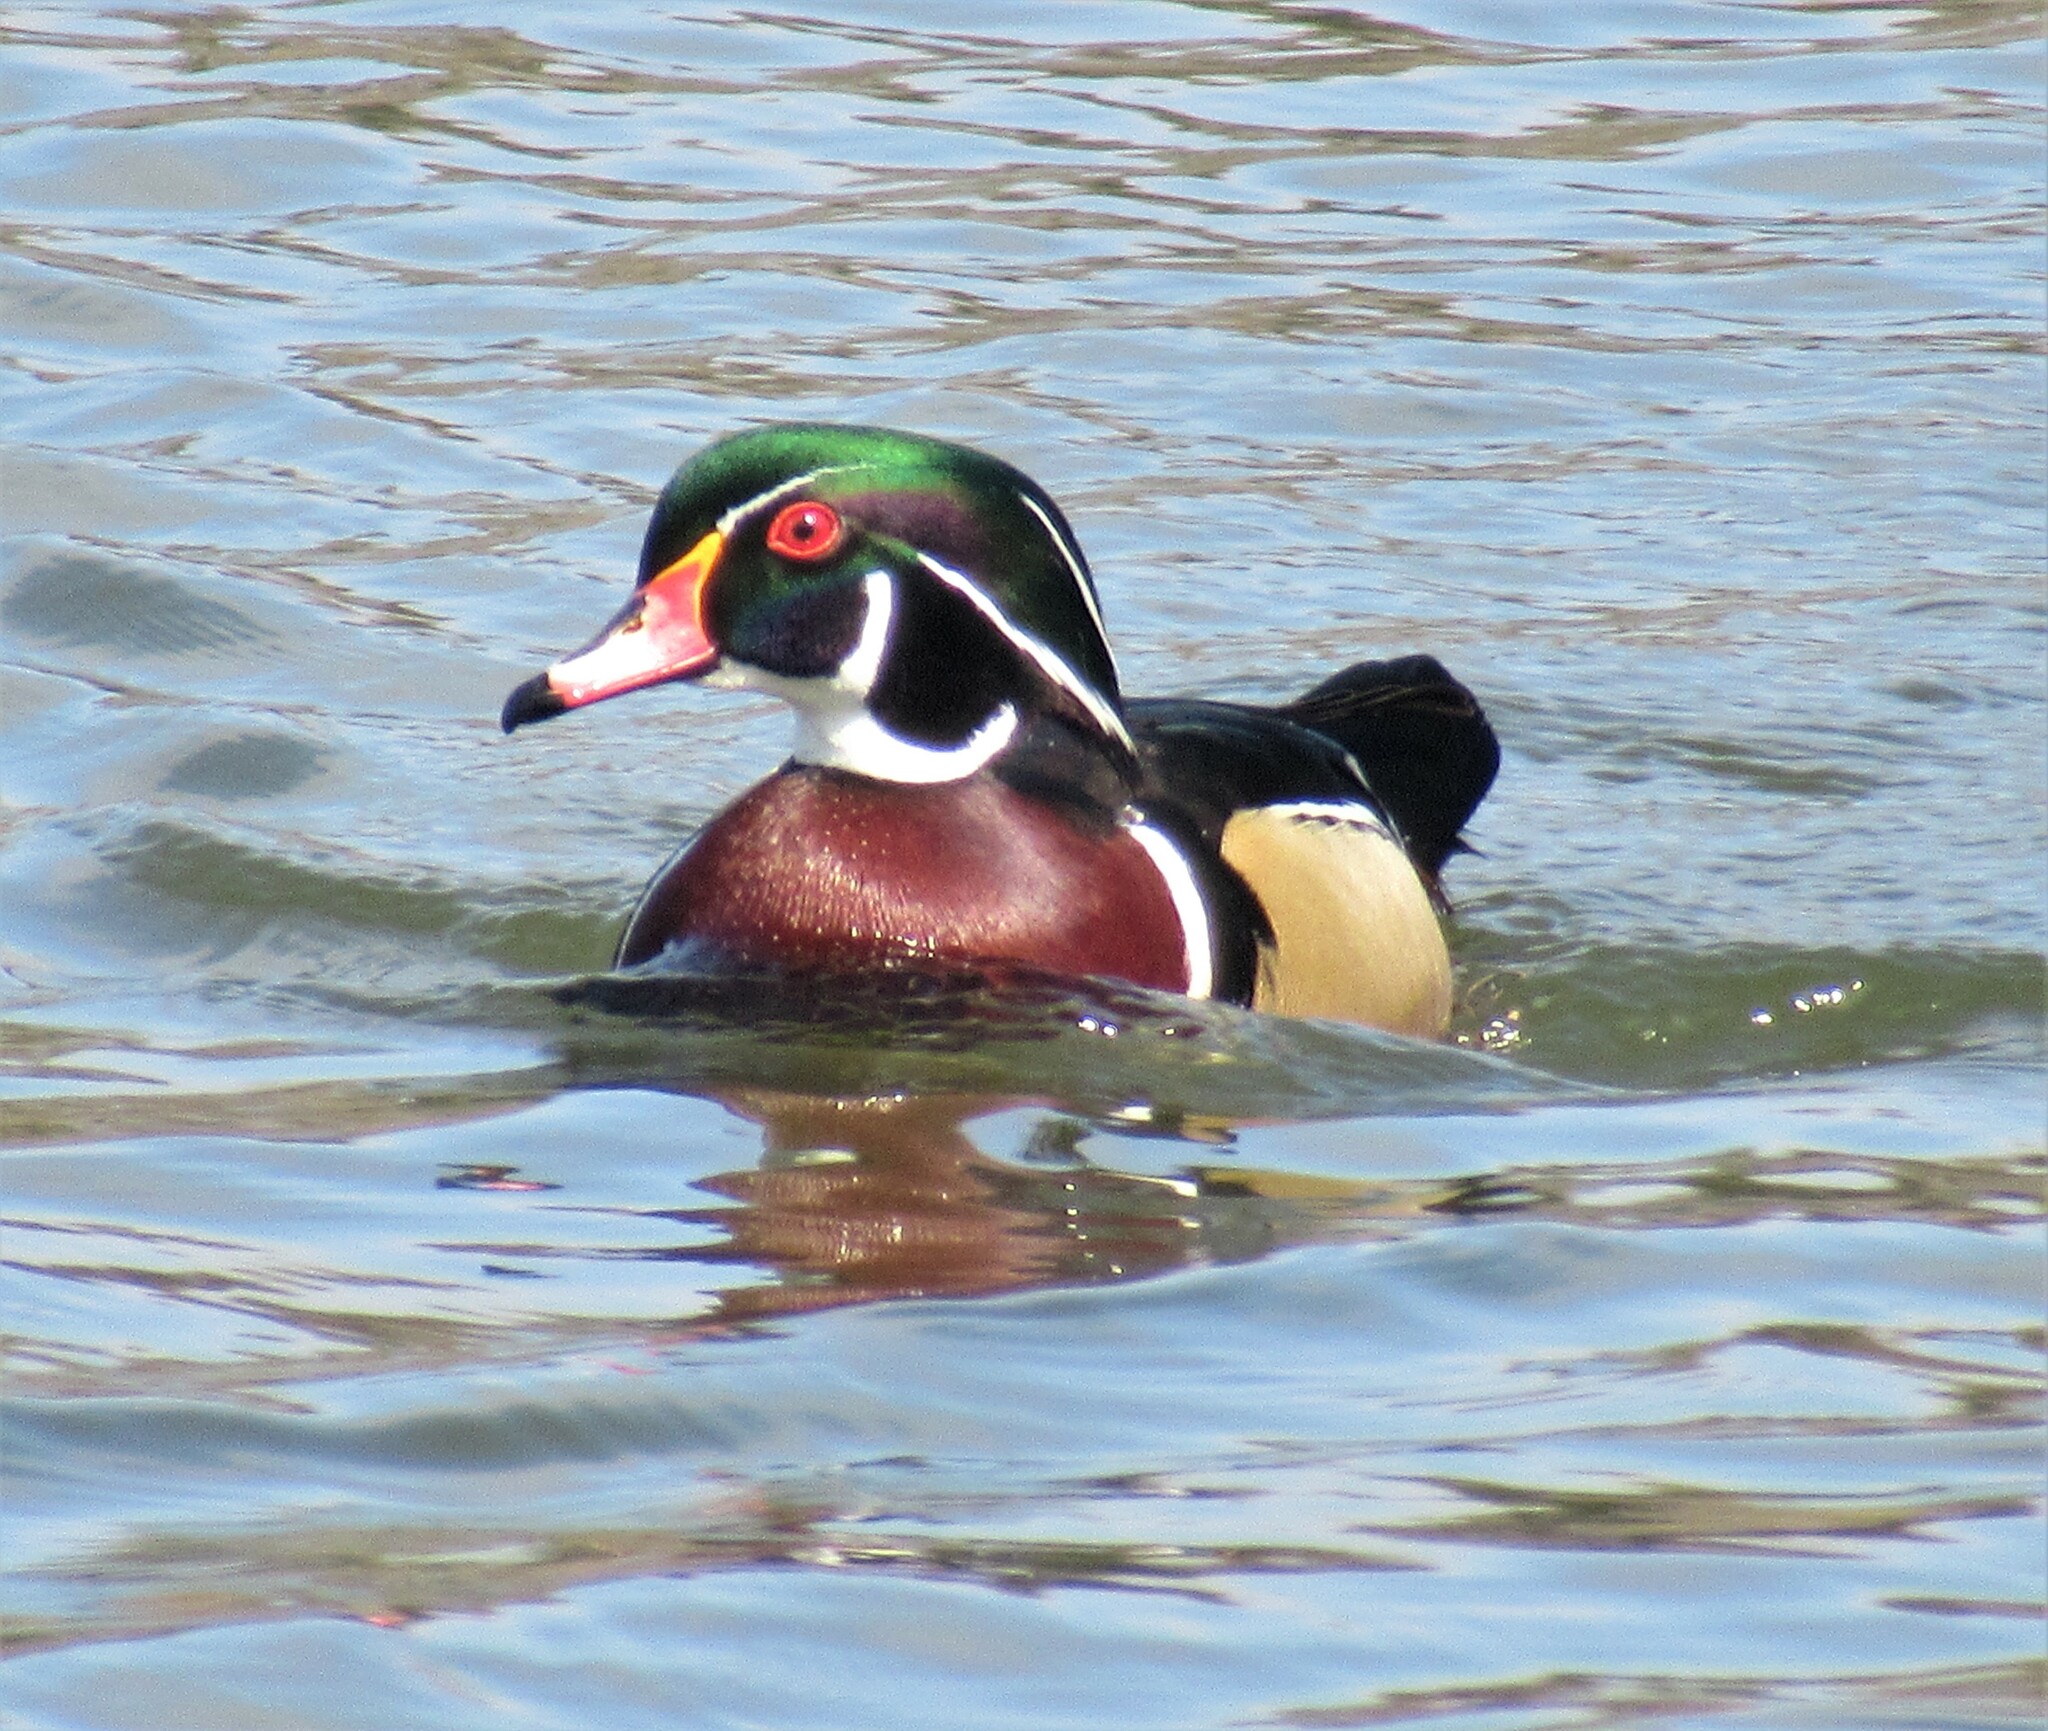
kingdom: Animalia
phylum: Chordata
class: Aves
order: Anseriformes
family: Anatidae
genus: Aix
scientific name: Aix sponsa
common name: Wood duck
